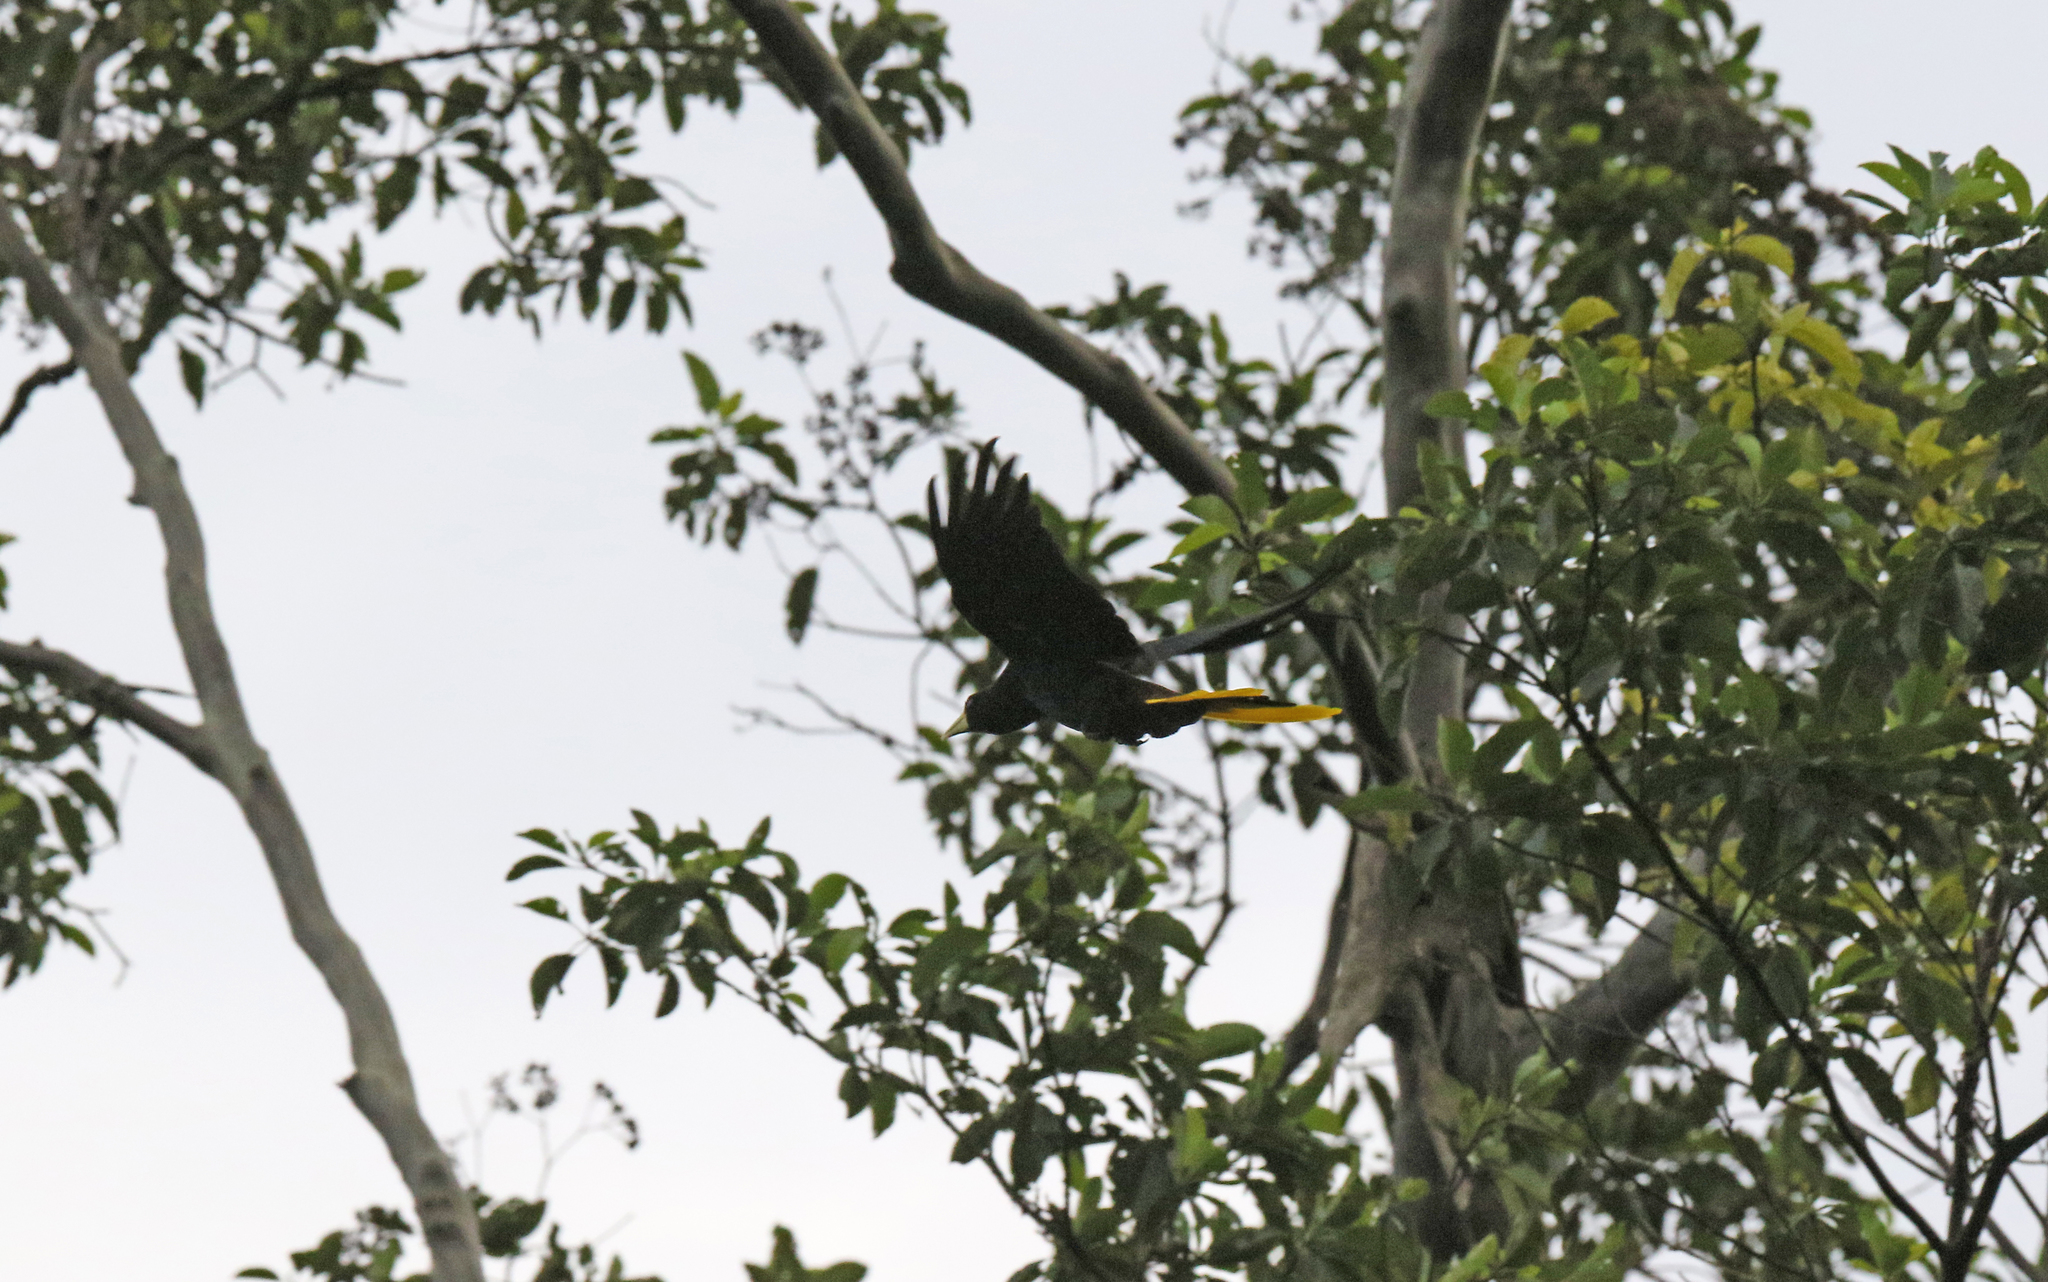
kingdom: Animalia
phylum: Chordata
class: Aves
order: Passeriformes
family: Icteridae
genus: Psarocolius
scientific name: Psarocolius decumanus
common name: Crested oropendola
